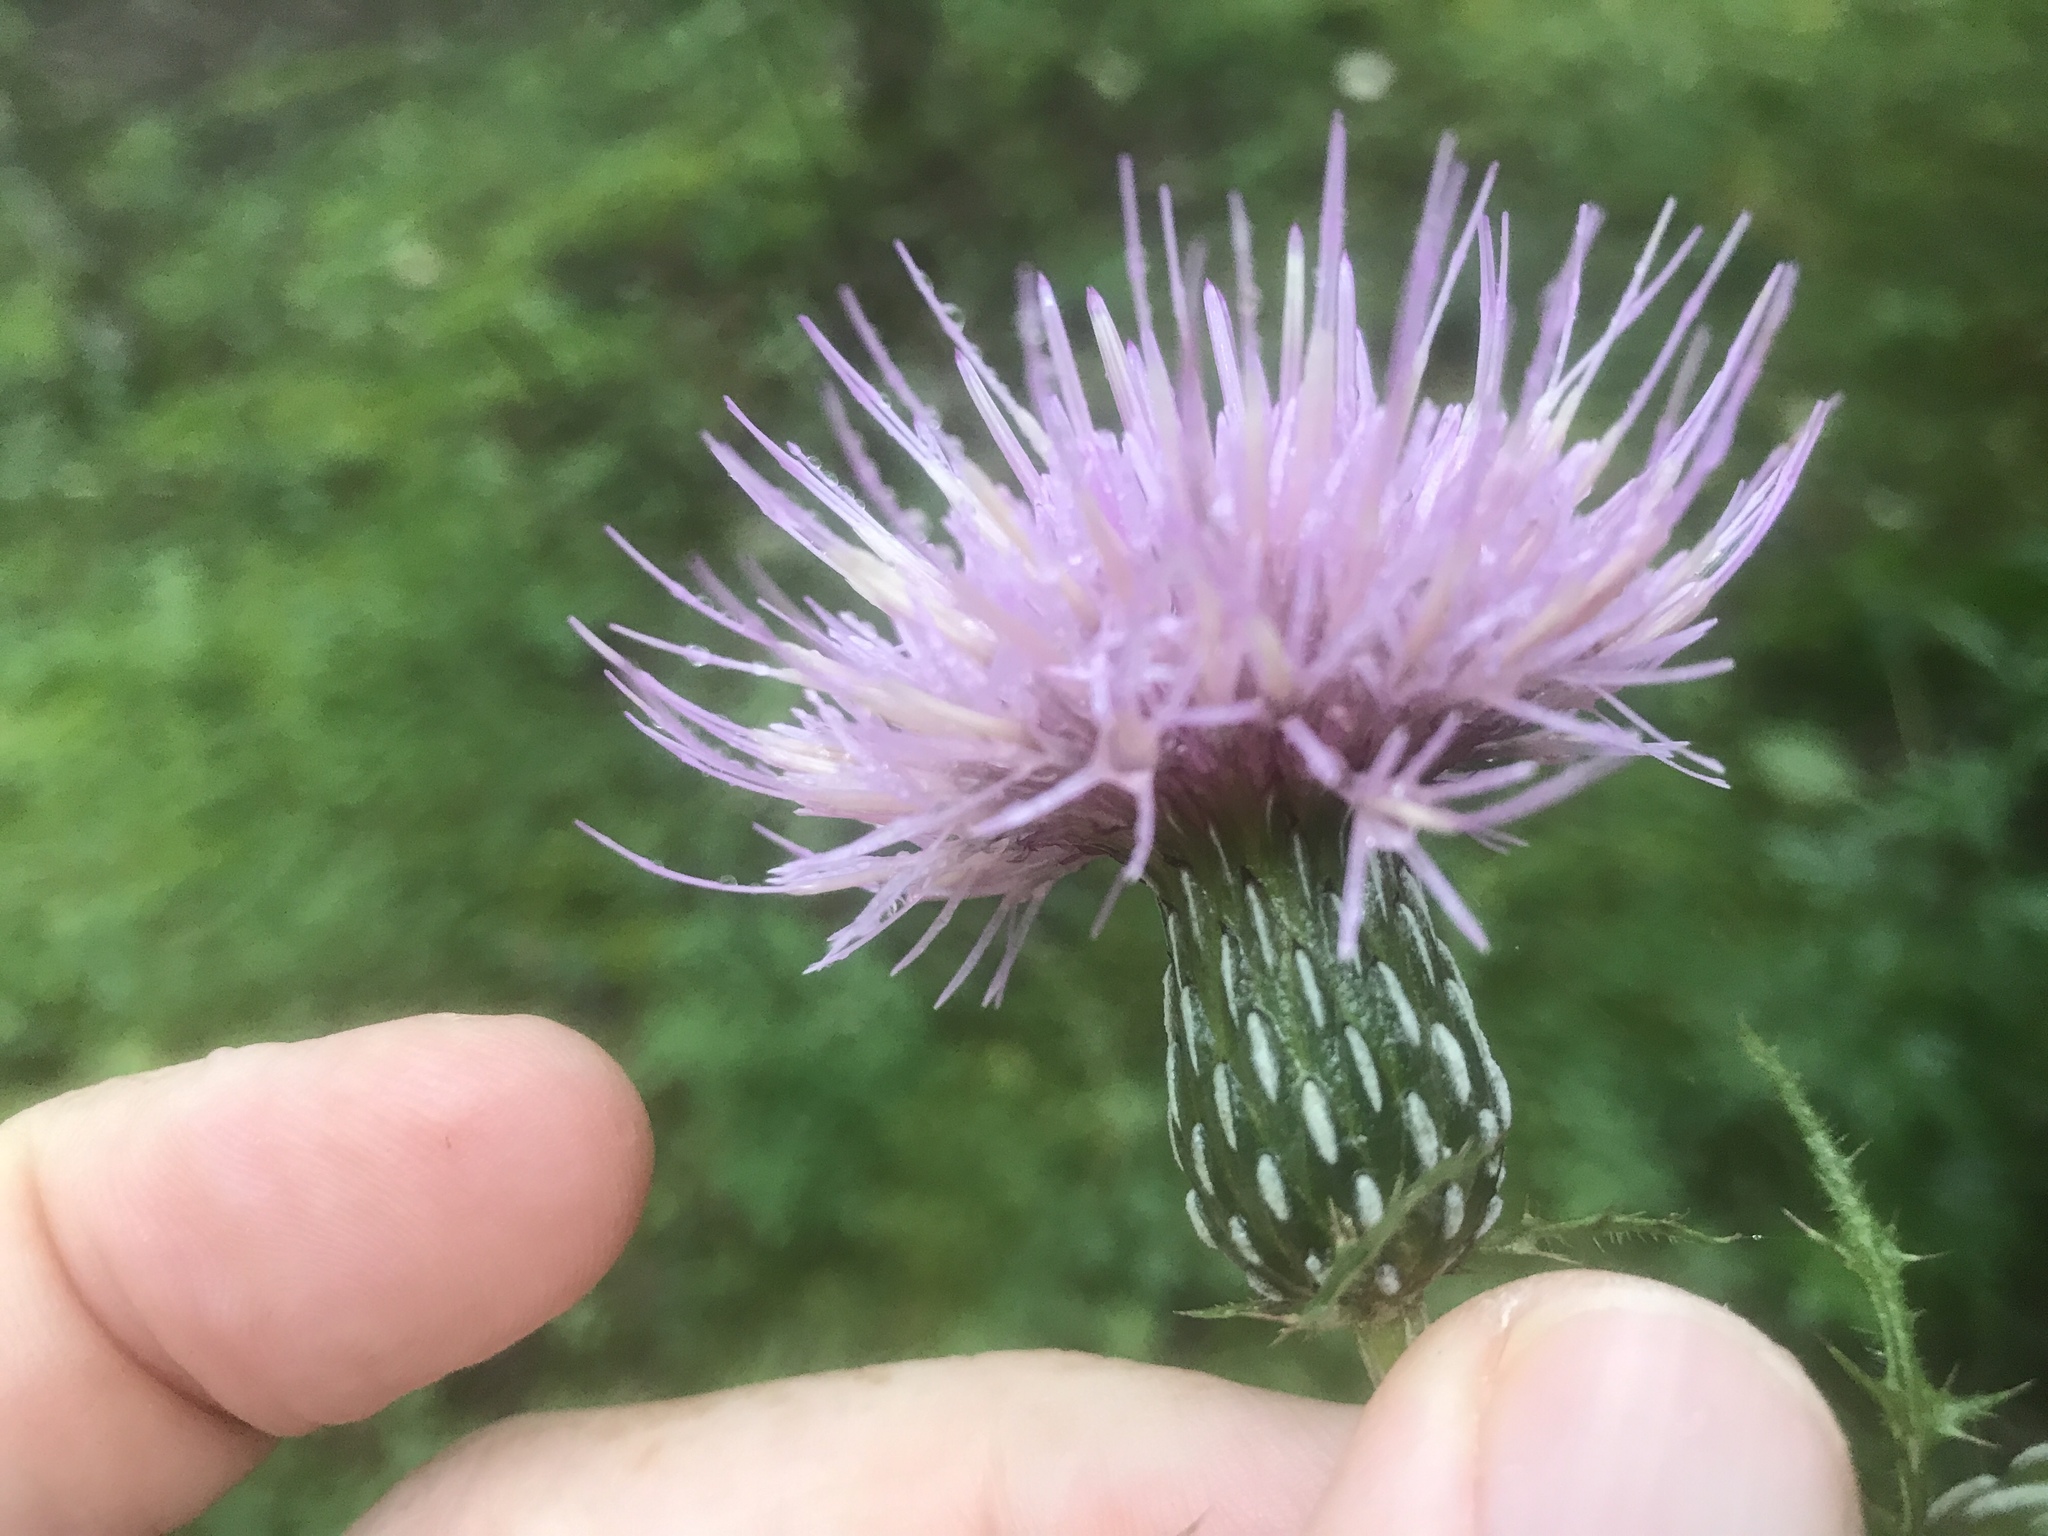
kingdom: Plantae
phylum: Tracheophyta
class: Magnoliopsida
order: Asterales
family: Asteraceae
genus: Cirsium
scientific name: Cirsium muticum
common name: Dunce-nettle
